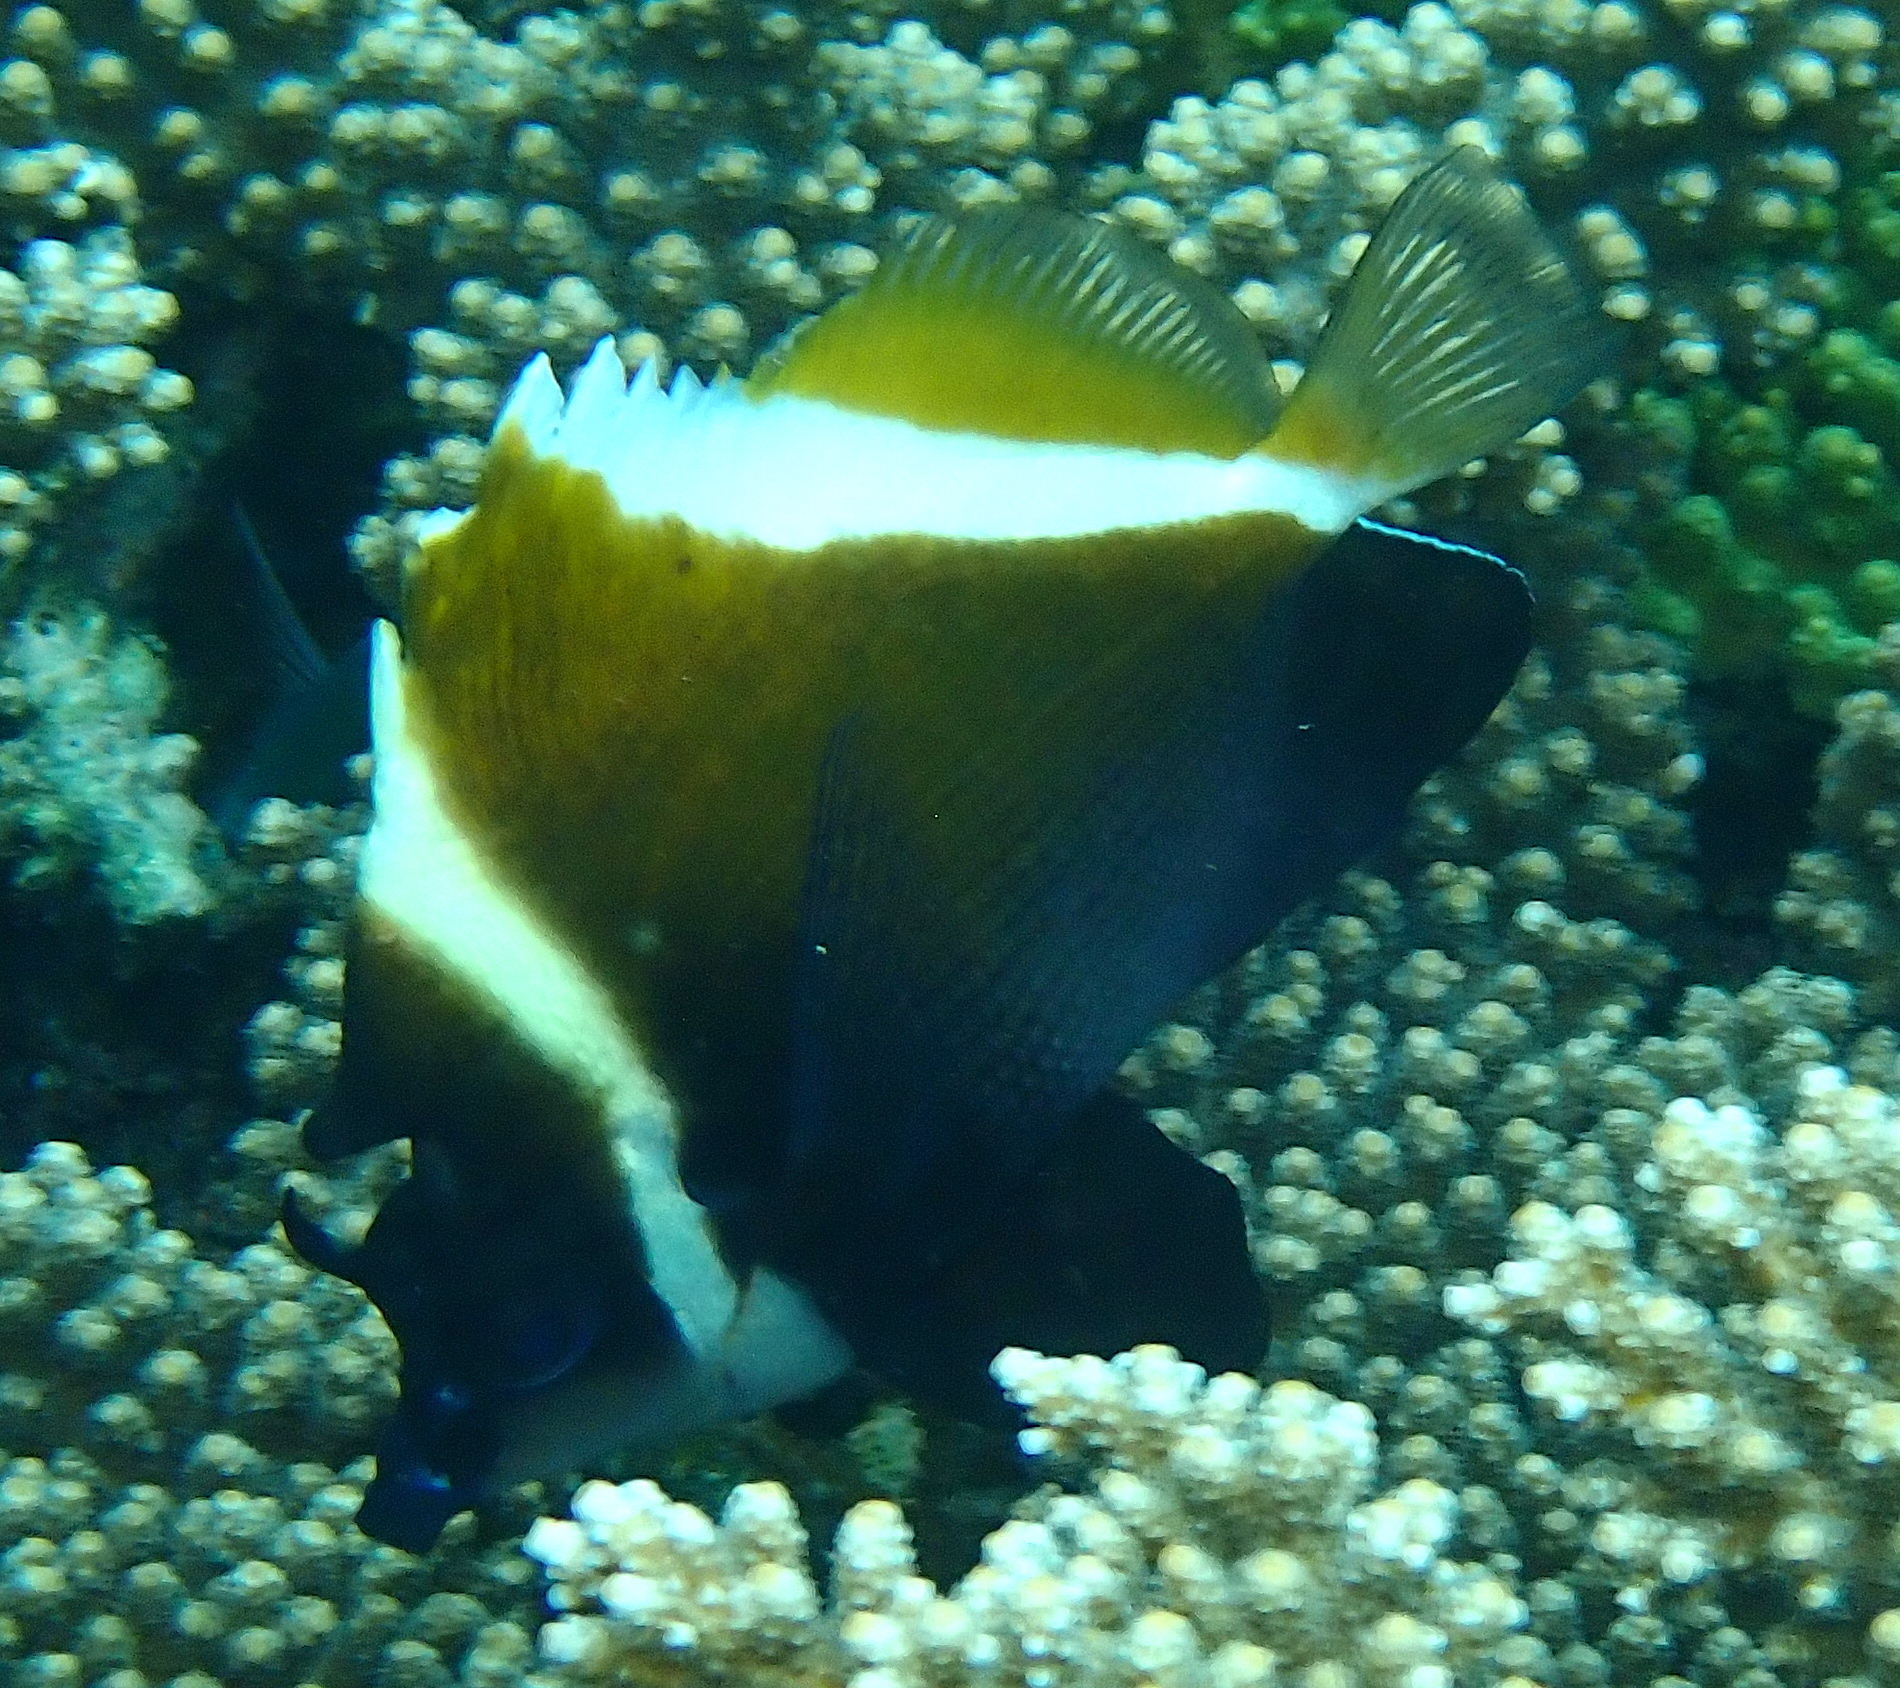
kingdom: Animalia
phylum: Chordata
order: Perciformes
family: Chaetodontidae
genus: Heniochus
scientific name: Heniochus varius
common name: Horned bannerfish
